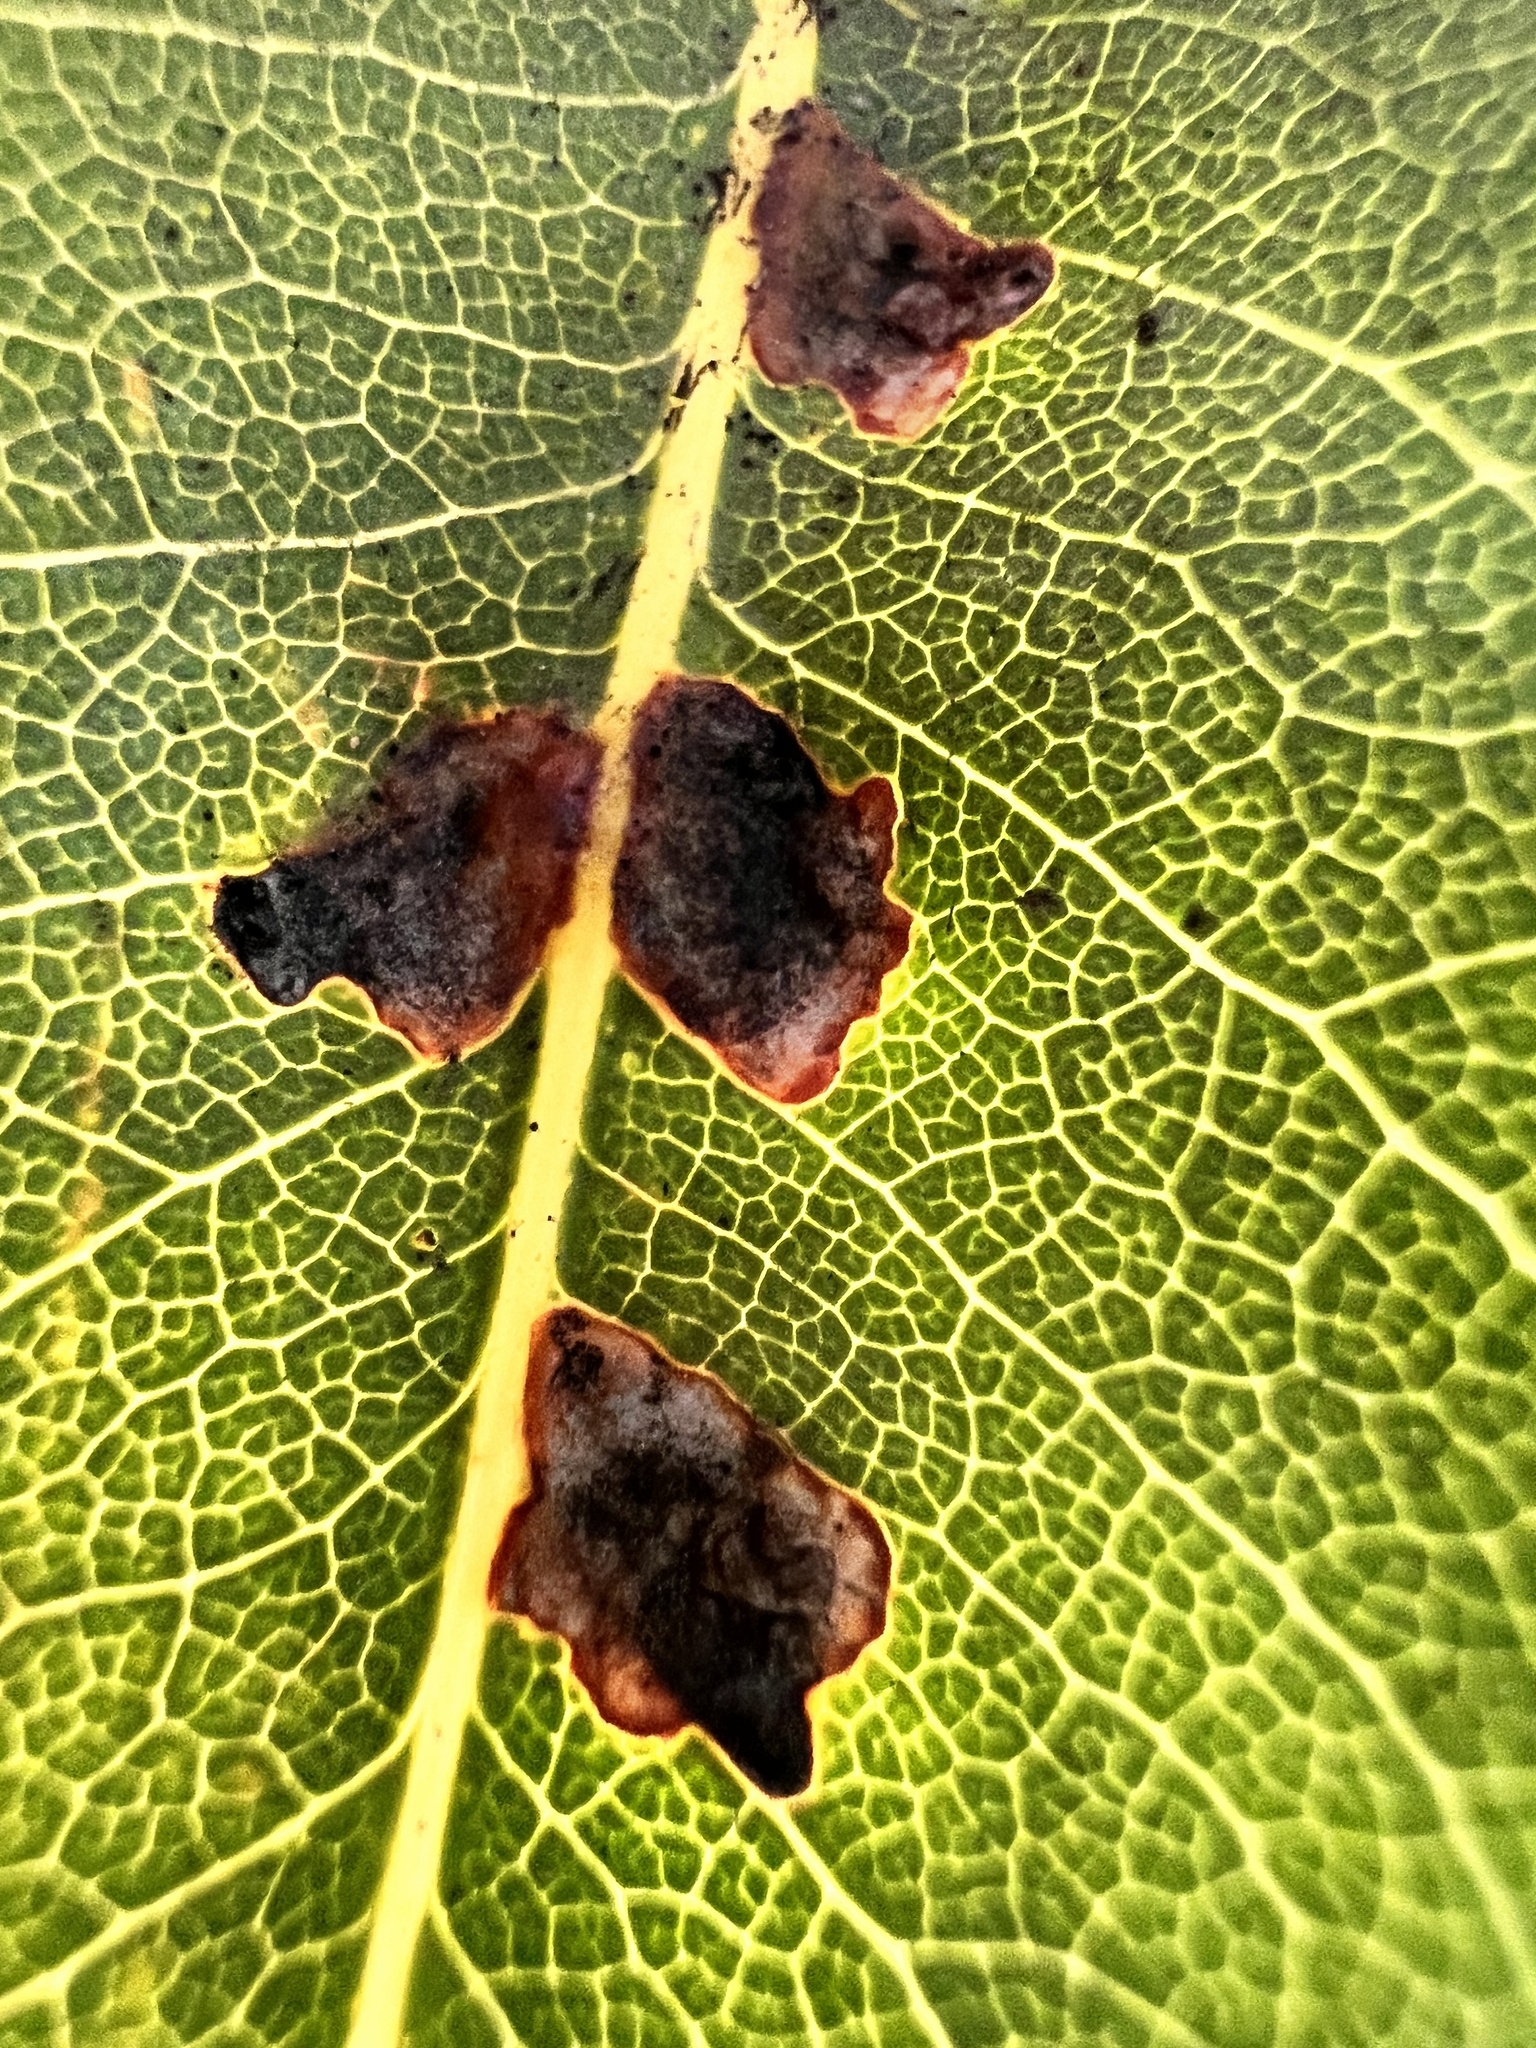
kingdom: Animalia
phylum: Arthropoda
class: Insecta
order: Diptera
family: Agromyzidae
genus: Phytoliriomyza
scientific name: Phytoliriomyza pittosporophylli
